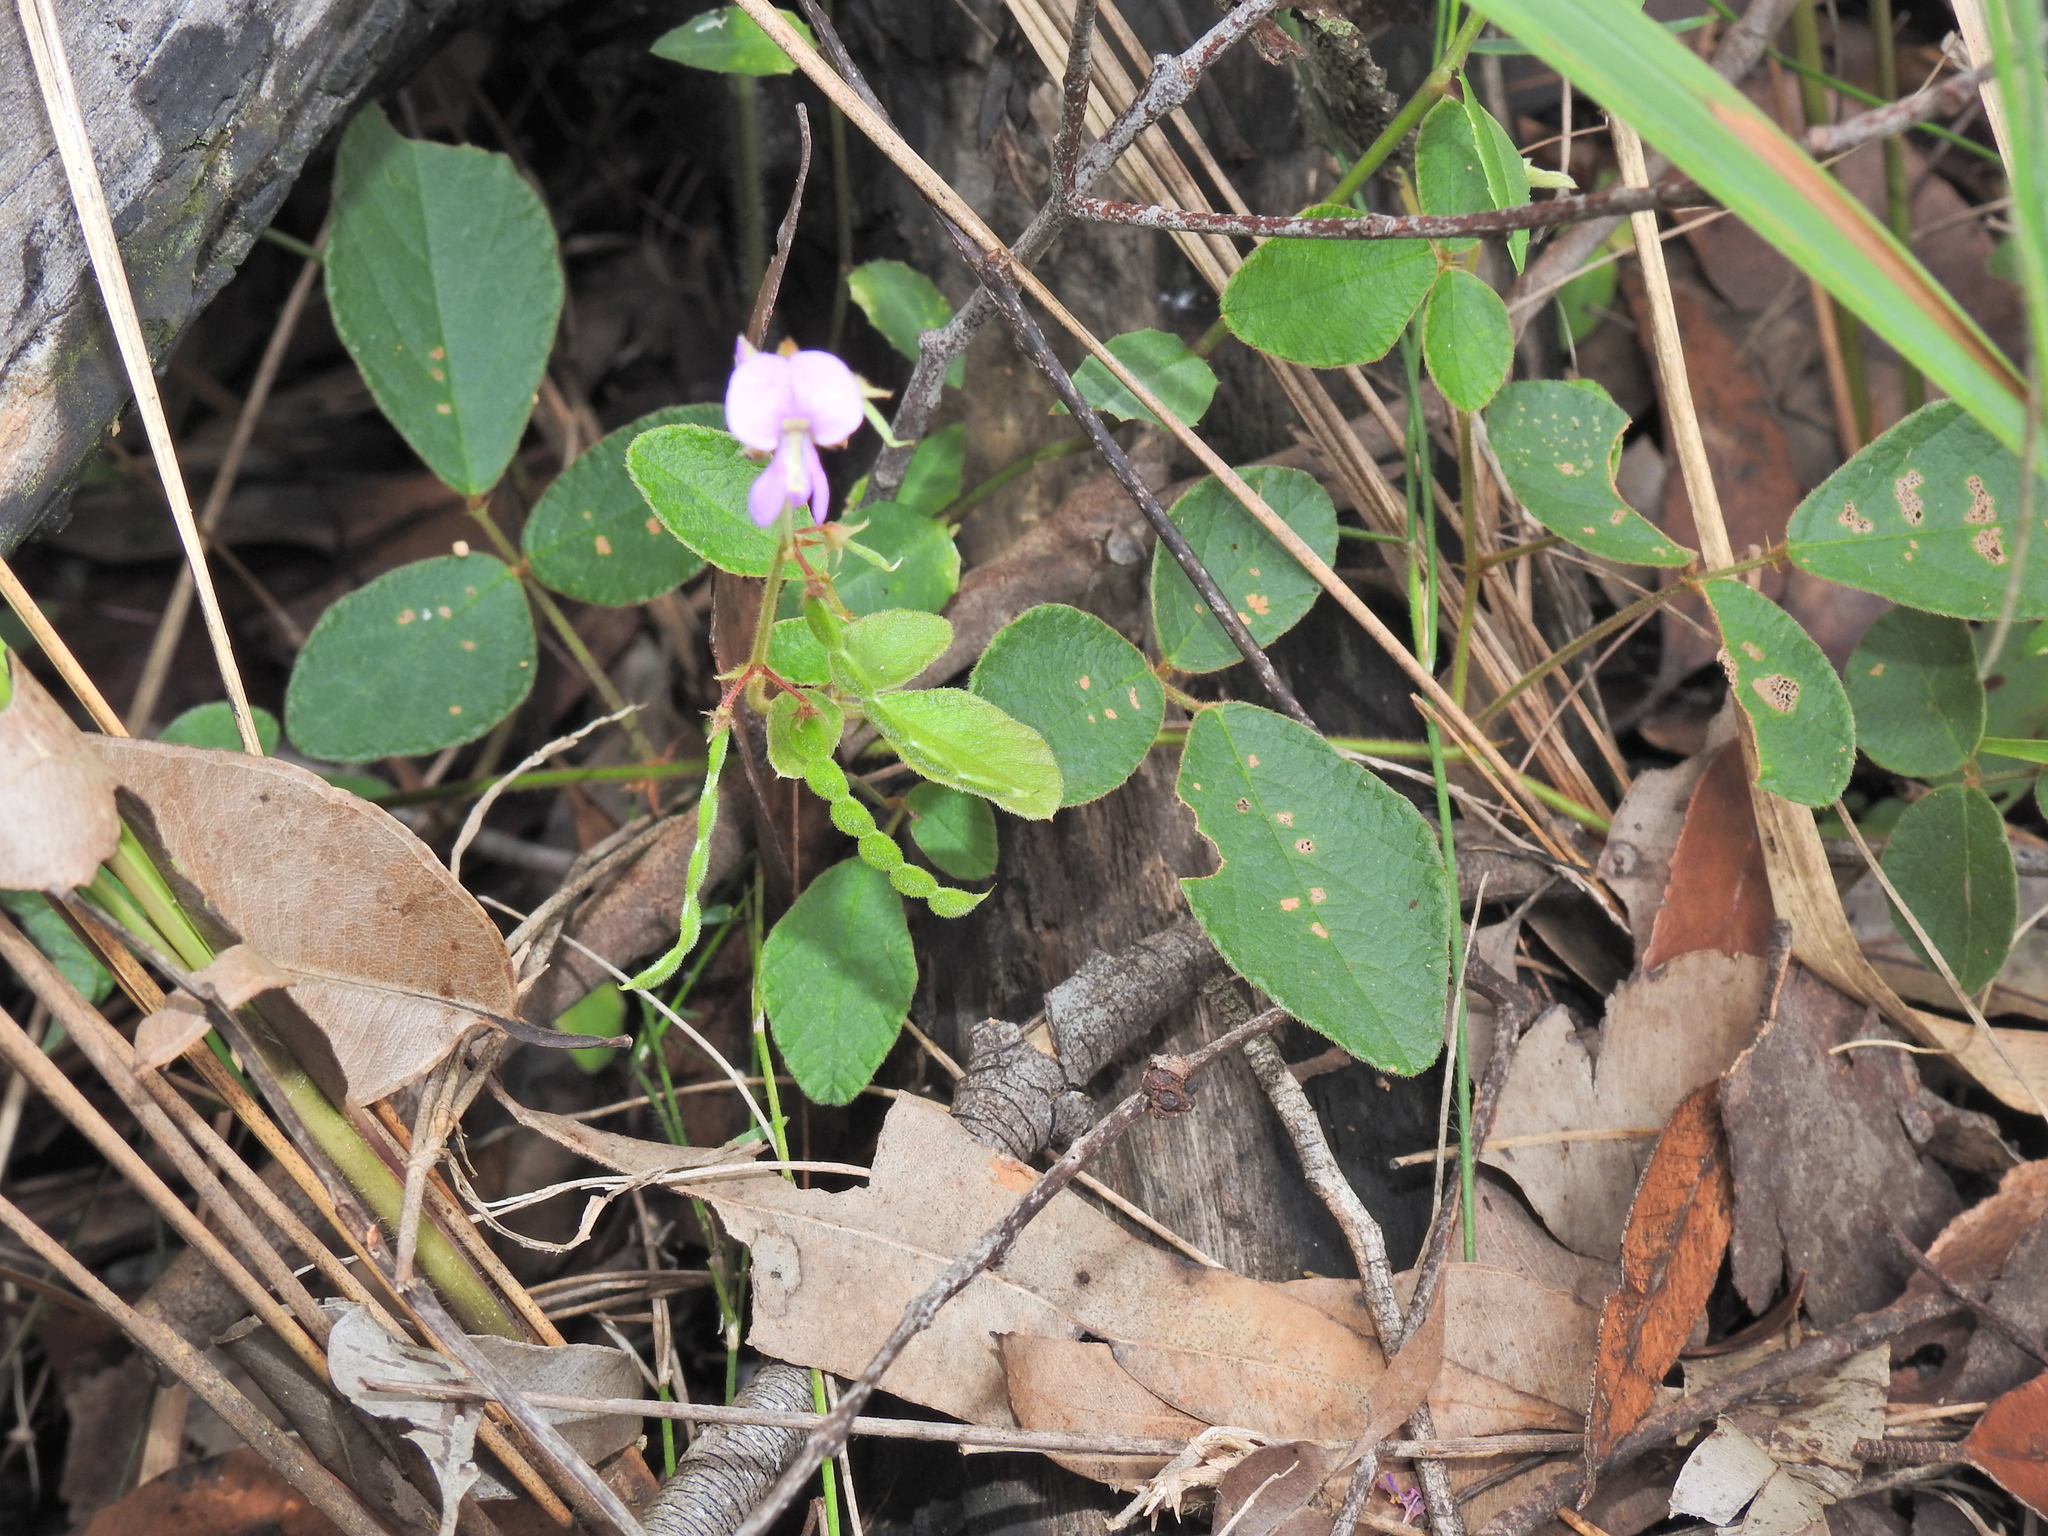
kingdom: Plantae
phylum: Tracheophyta
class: Magnoliopsida
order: Fabales
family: Fabaceae
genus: Maekawaea
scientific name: Maekawaea rhytidophylla
